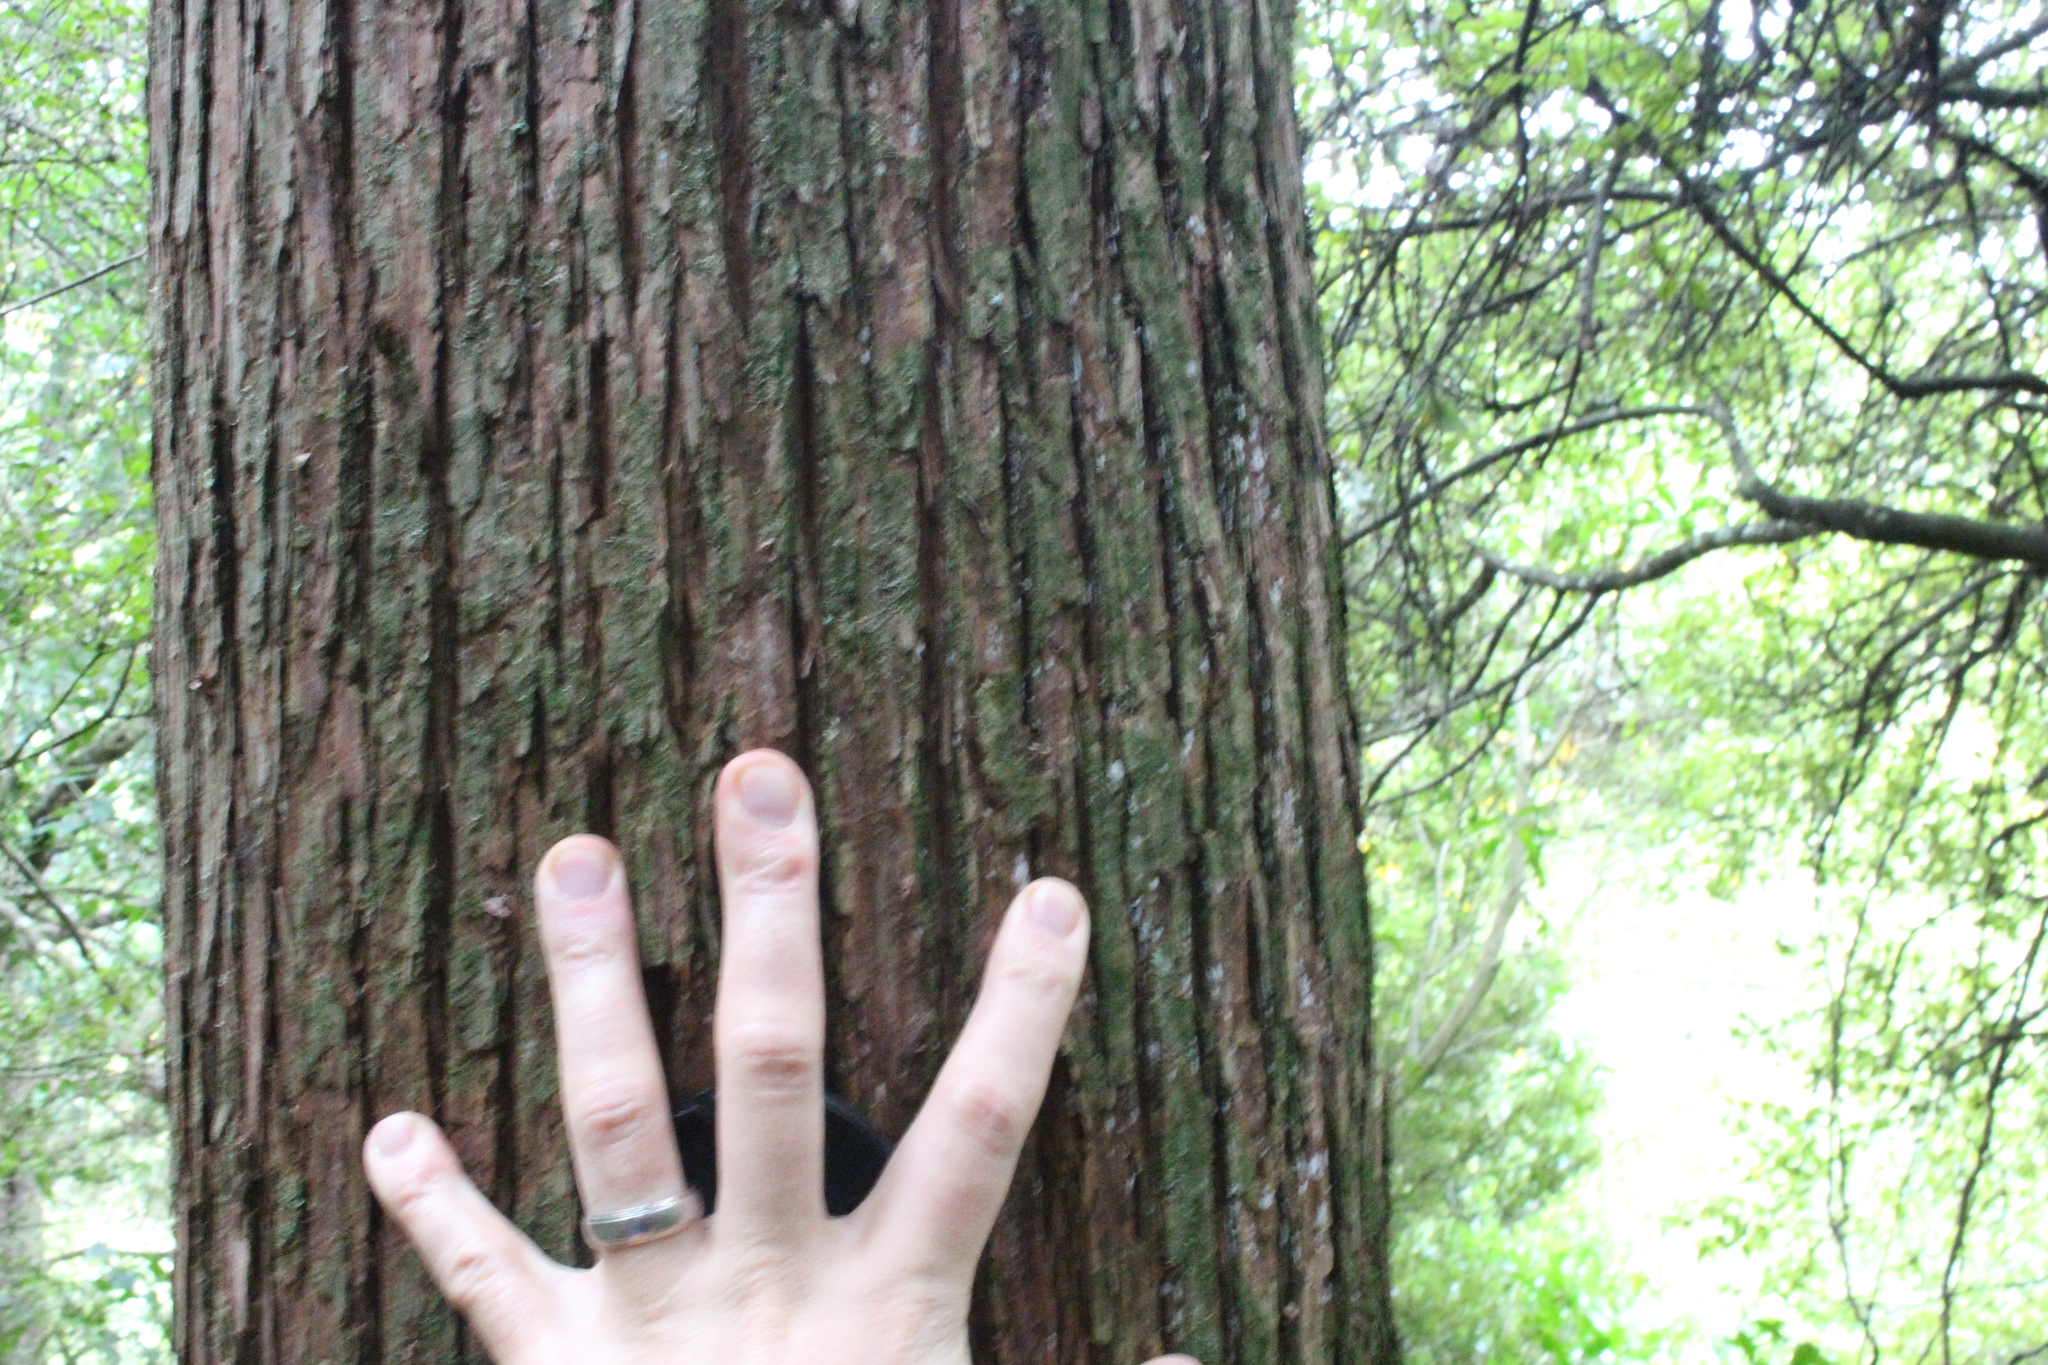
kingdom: Plantae
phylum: Tracheophyta
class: Pinopsida
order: Pinales
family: Podocarpaceae
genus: Podocarpus
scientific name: Podocarpus totara
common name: Totara
